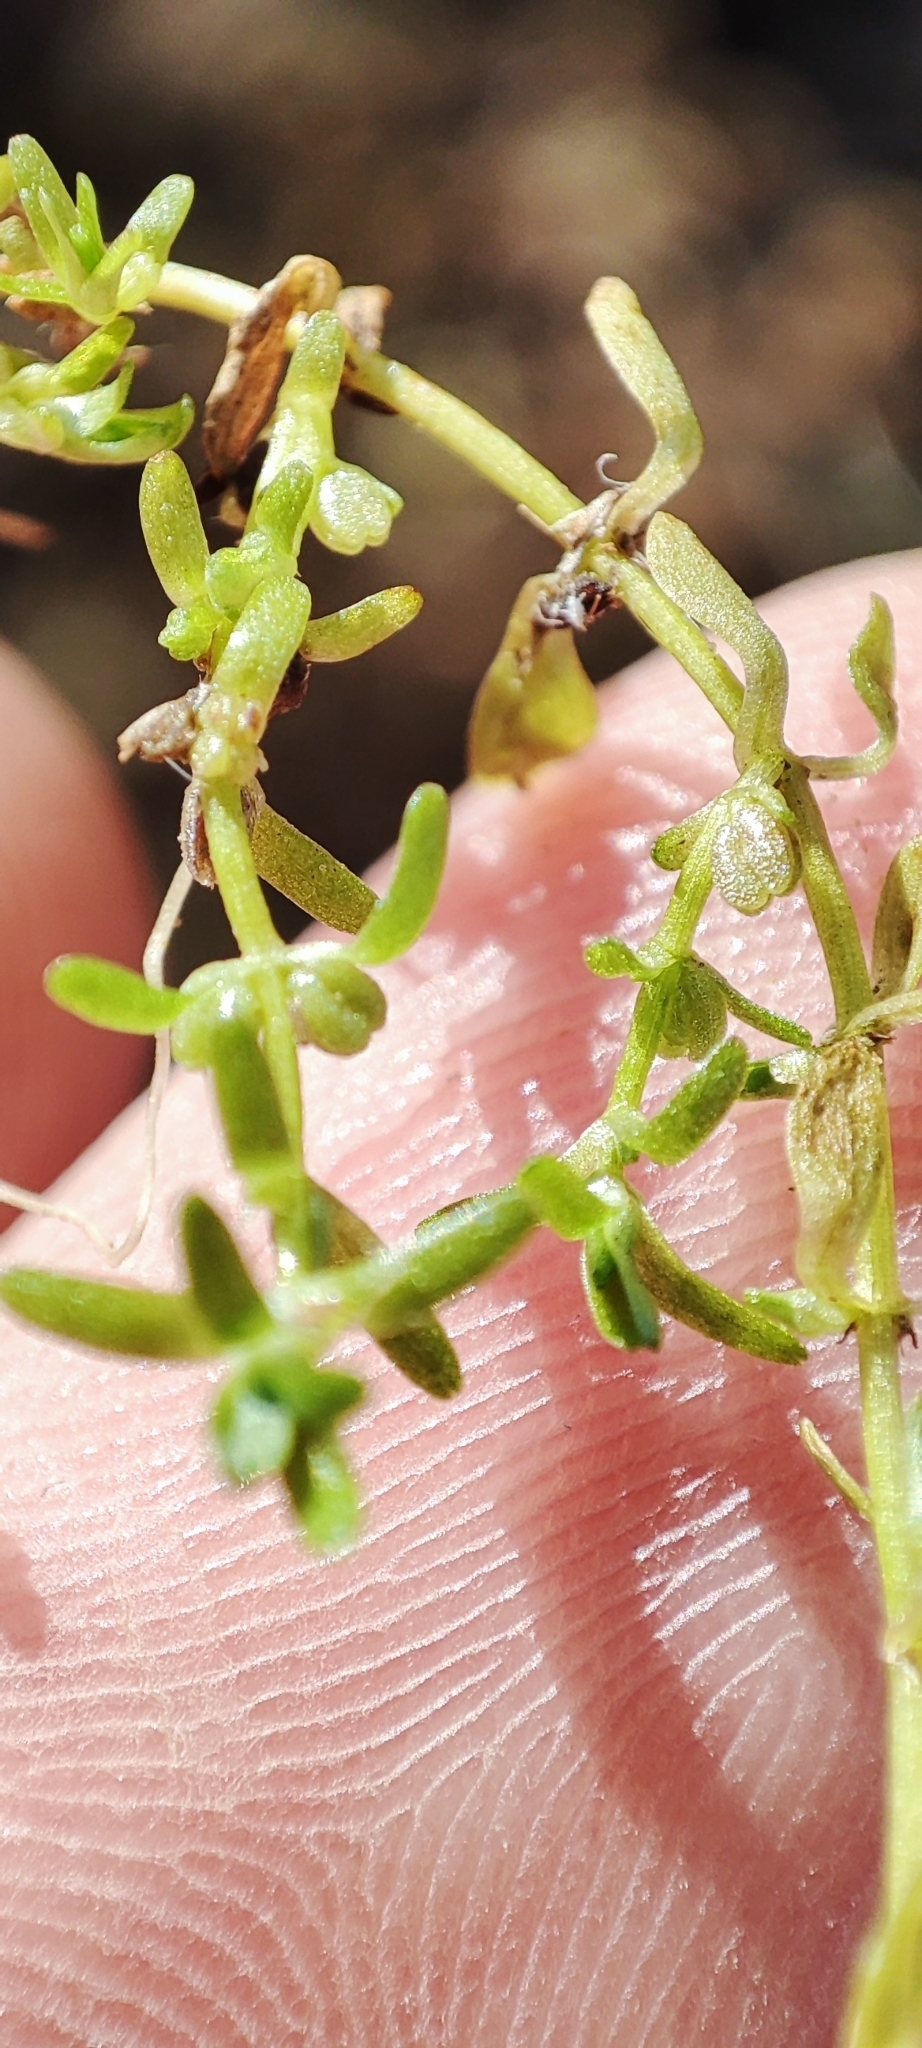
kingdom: Plantae
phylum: Tracheophyta
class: Magnoliopsida
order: Lamiales
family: Plantaginaceae
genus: Callitriche
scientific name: Callitriche palustris
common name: Spring water-starwort
